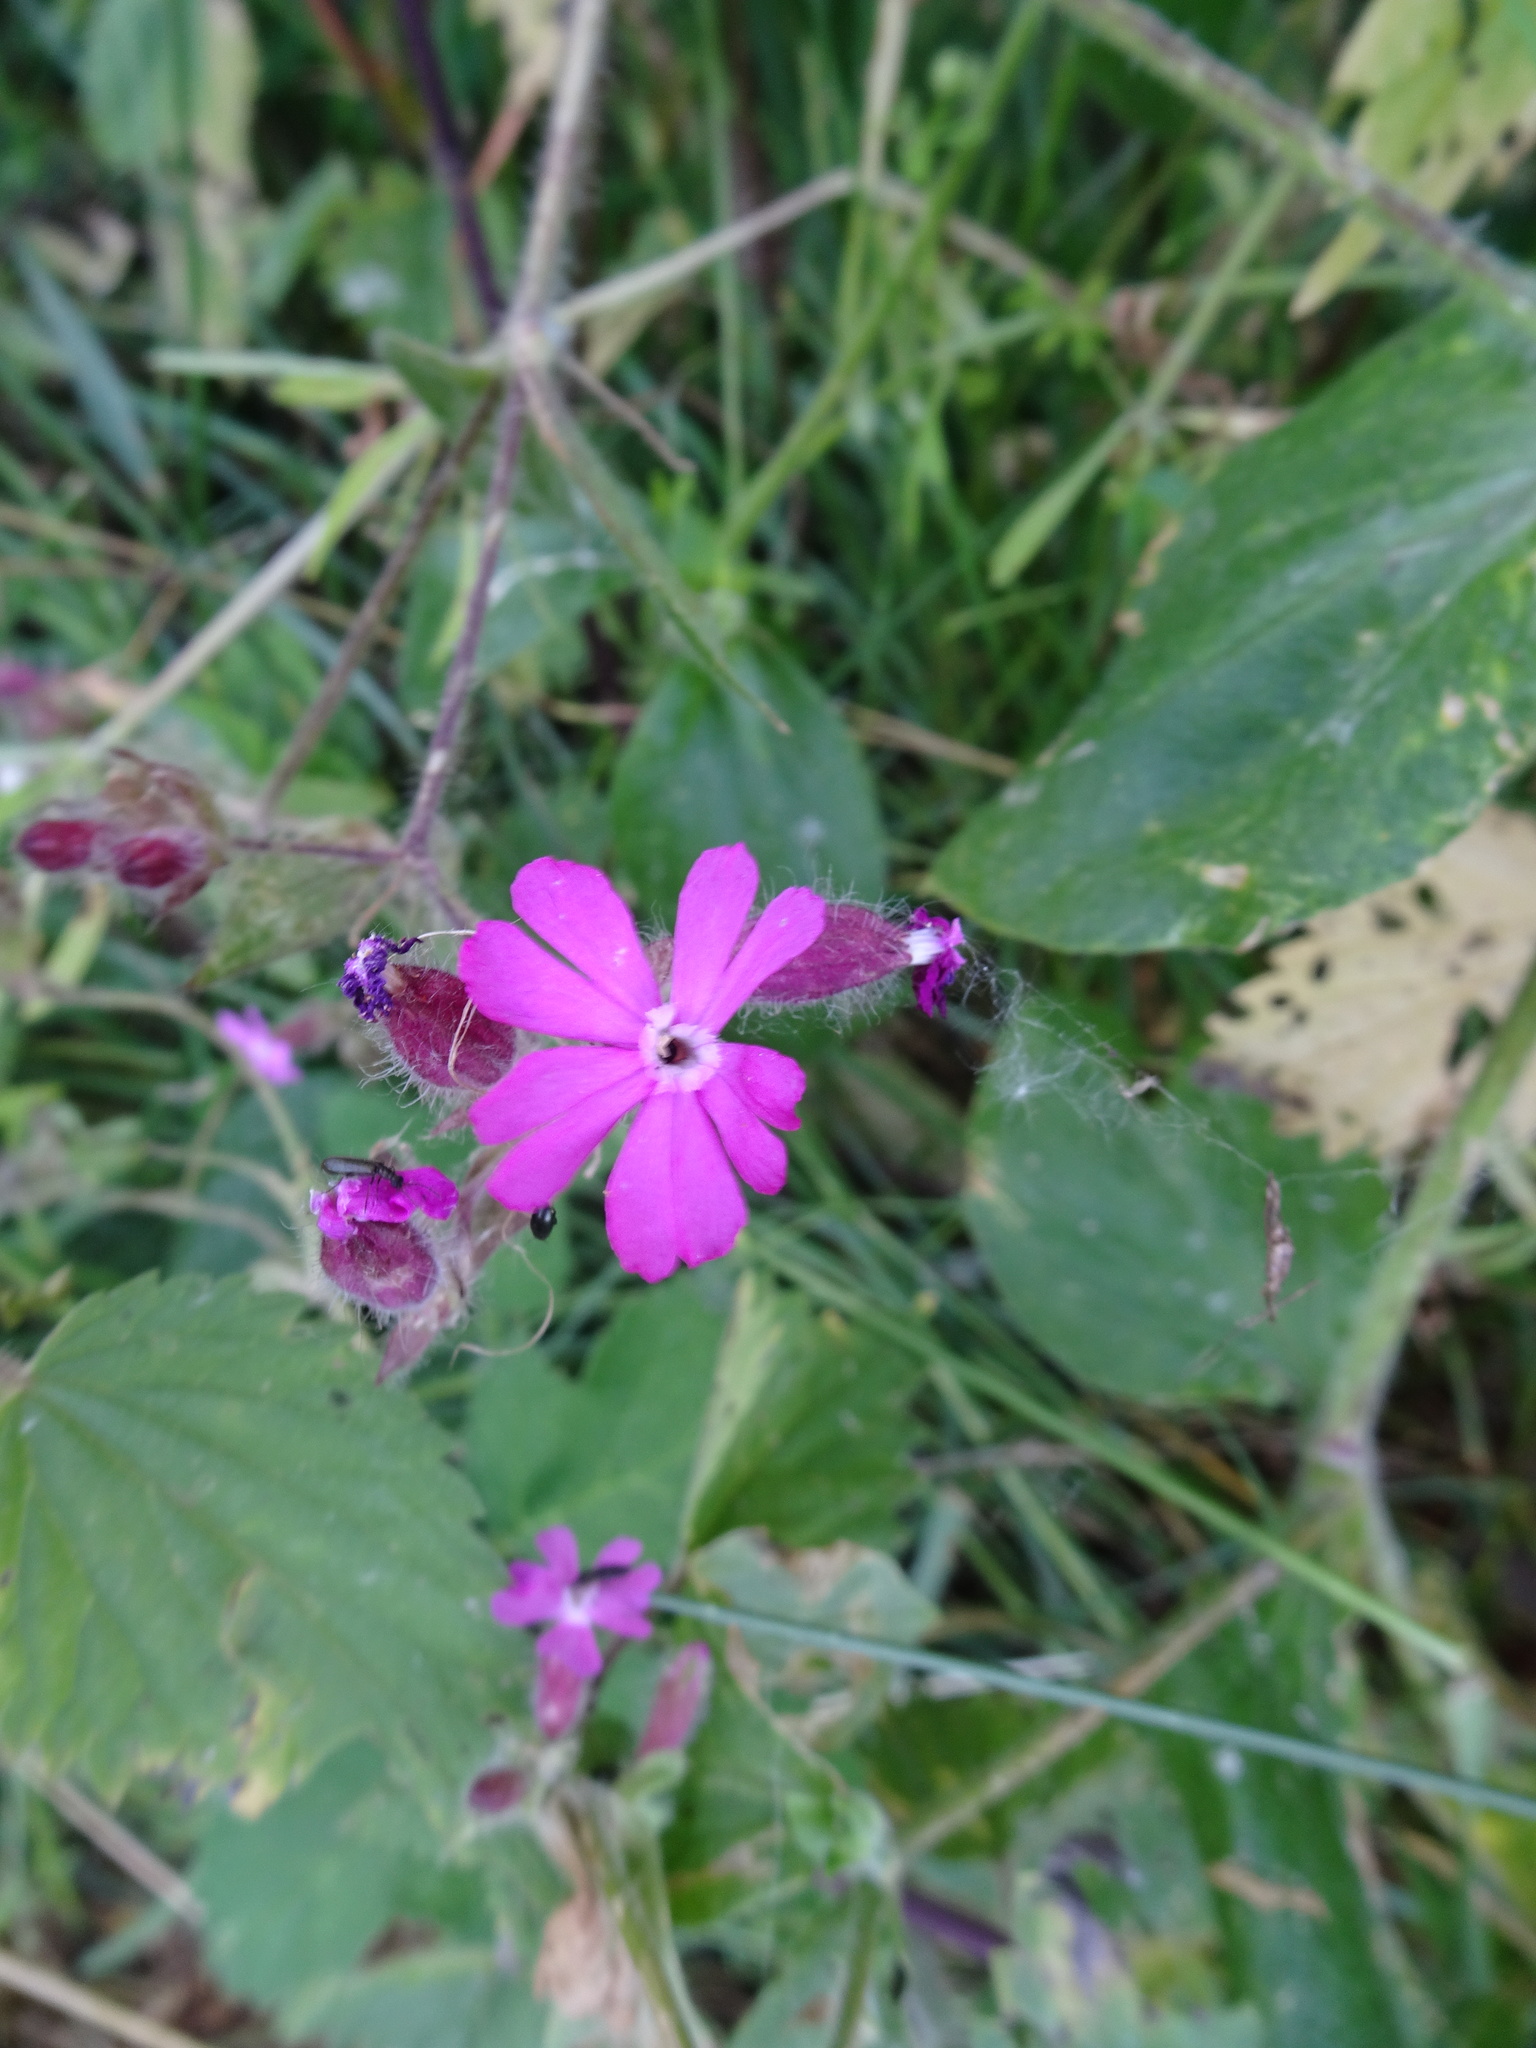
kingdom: Plantae
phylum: Tracheophyta
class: Magnoliopsida
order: Caryophyllales
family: Caryophyllaceae
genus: Silene
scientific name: Silene dioica
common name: Red campion
